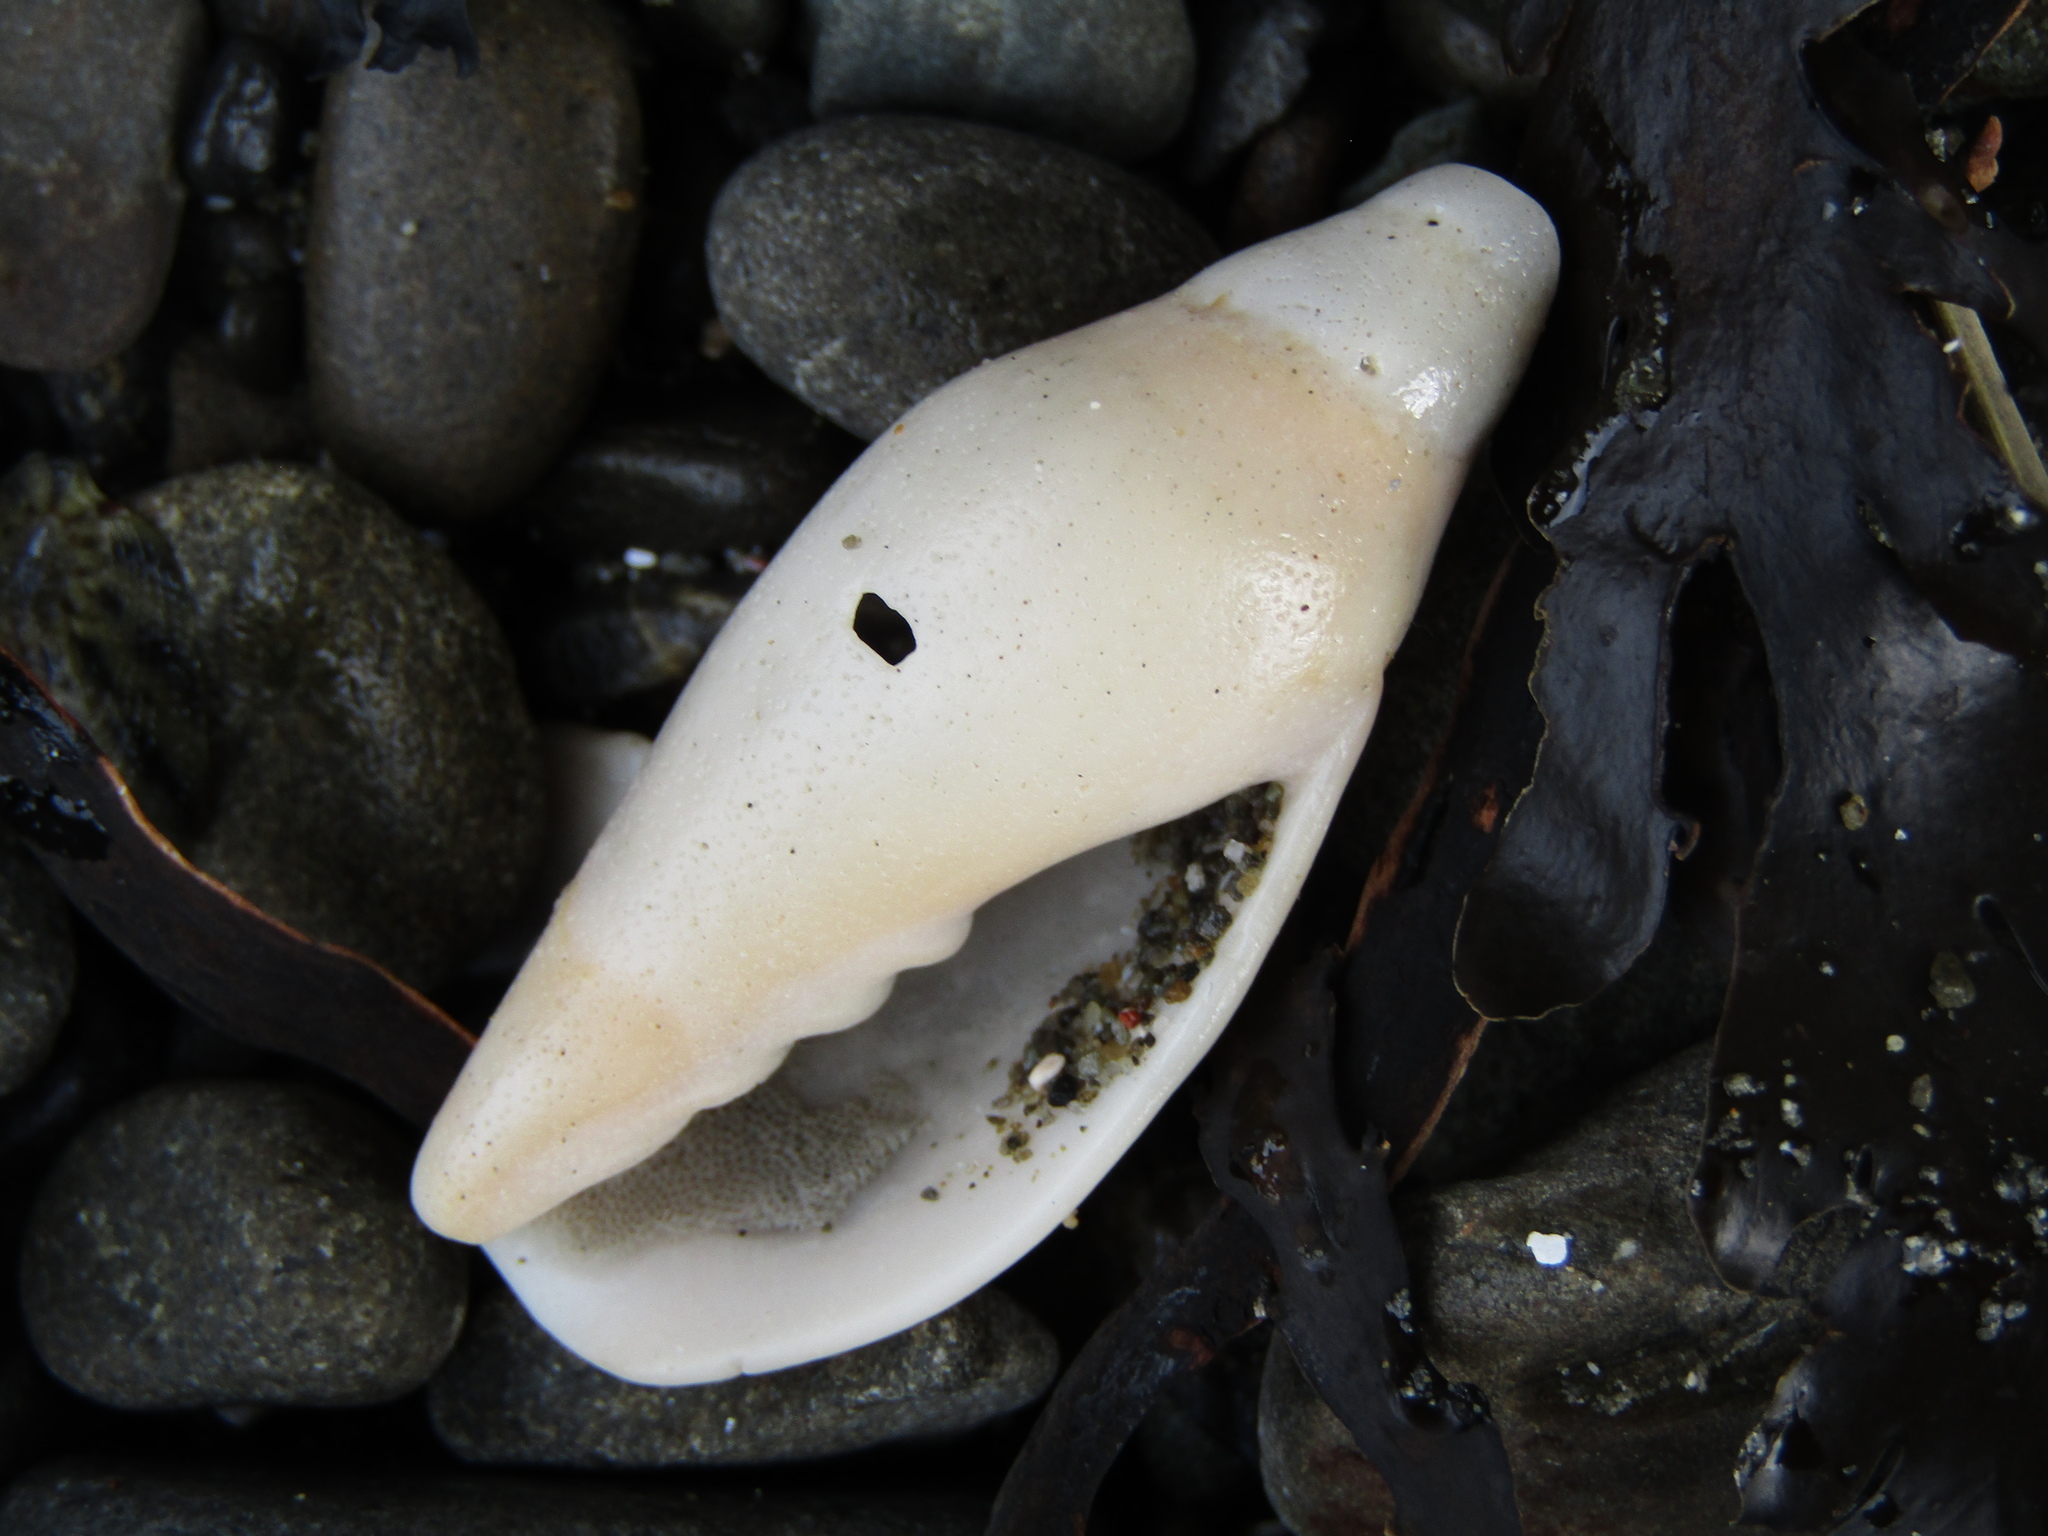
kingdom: Animalia
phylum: Mollusca
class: Gastropoda
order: Neogastropoda
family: Volutidae
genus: Alcithoe
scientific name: Alcithoe fusus
